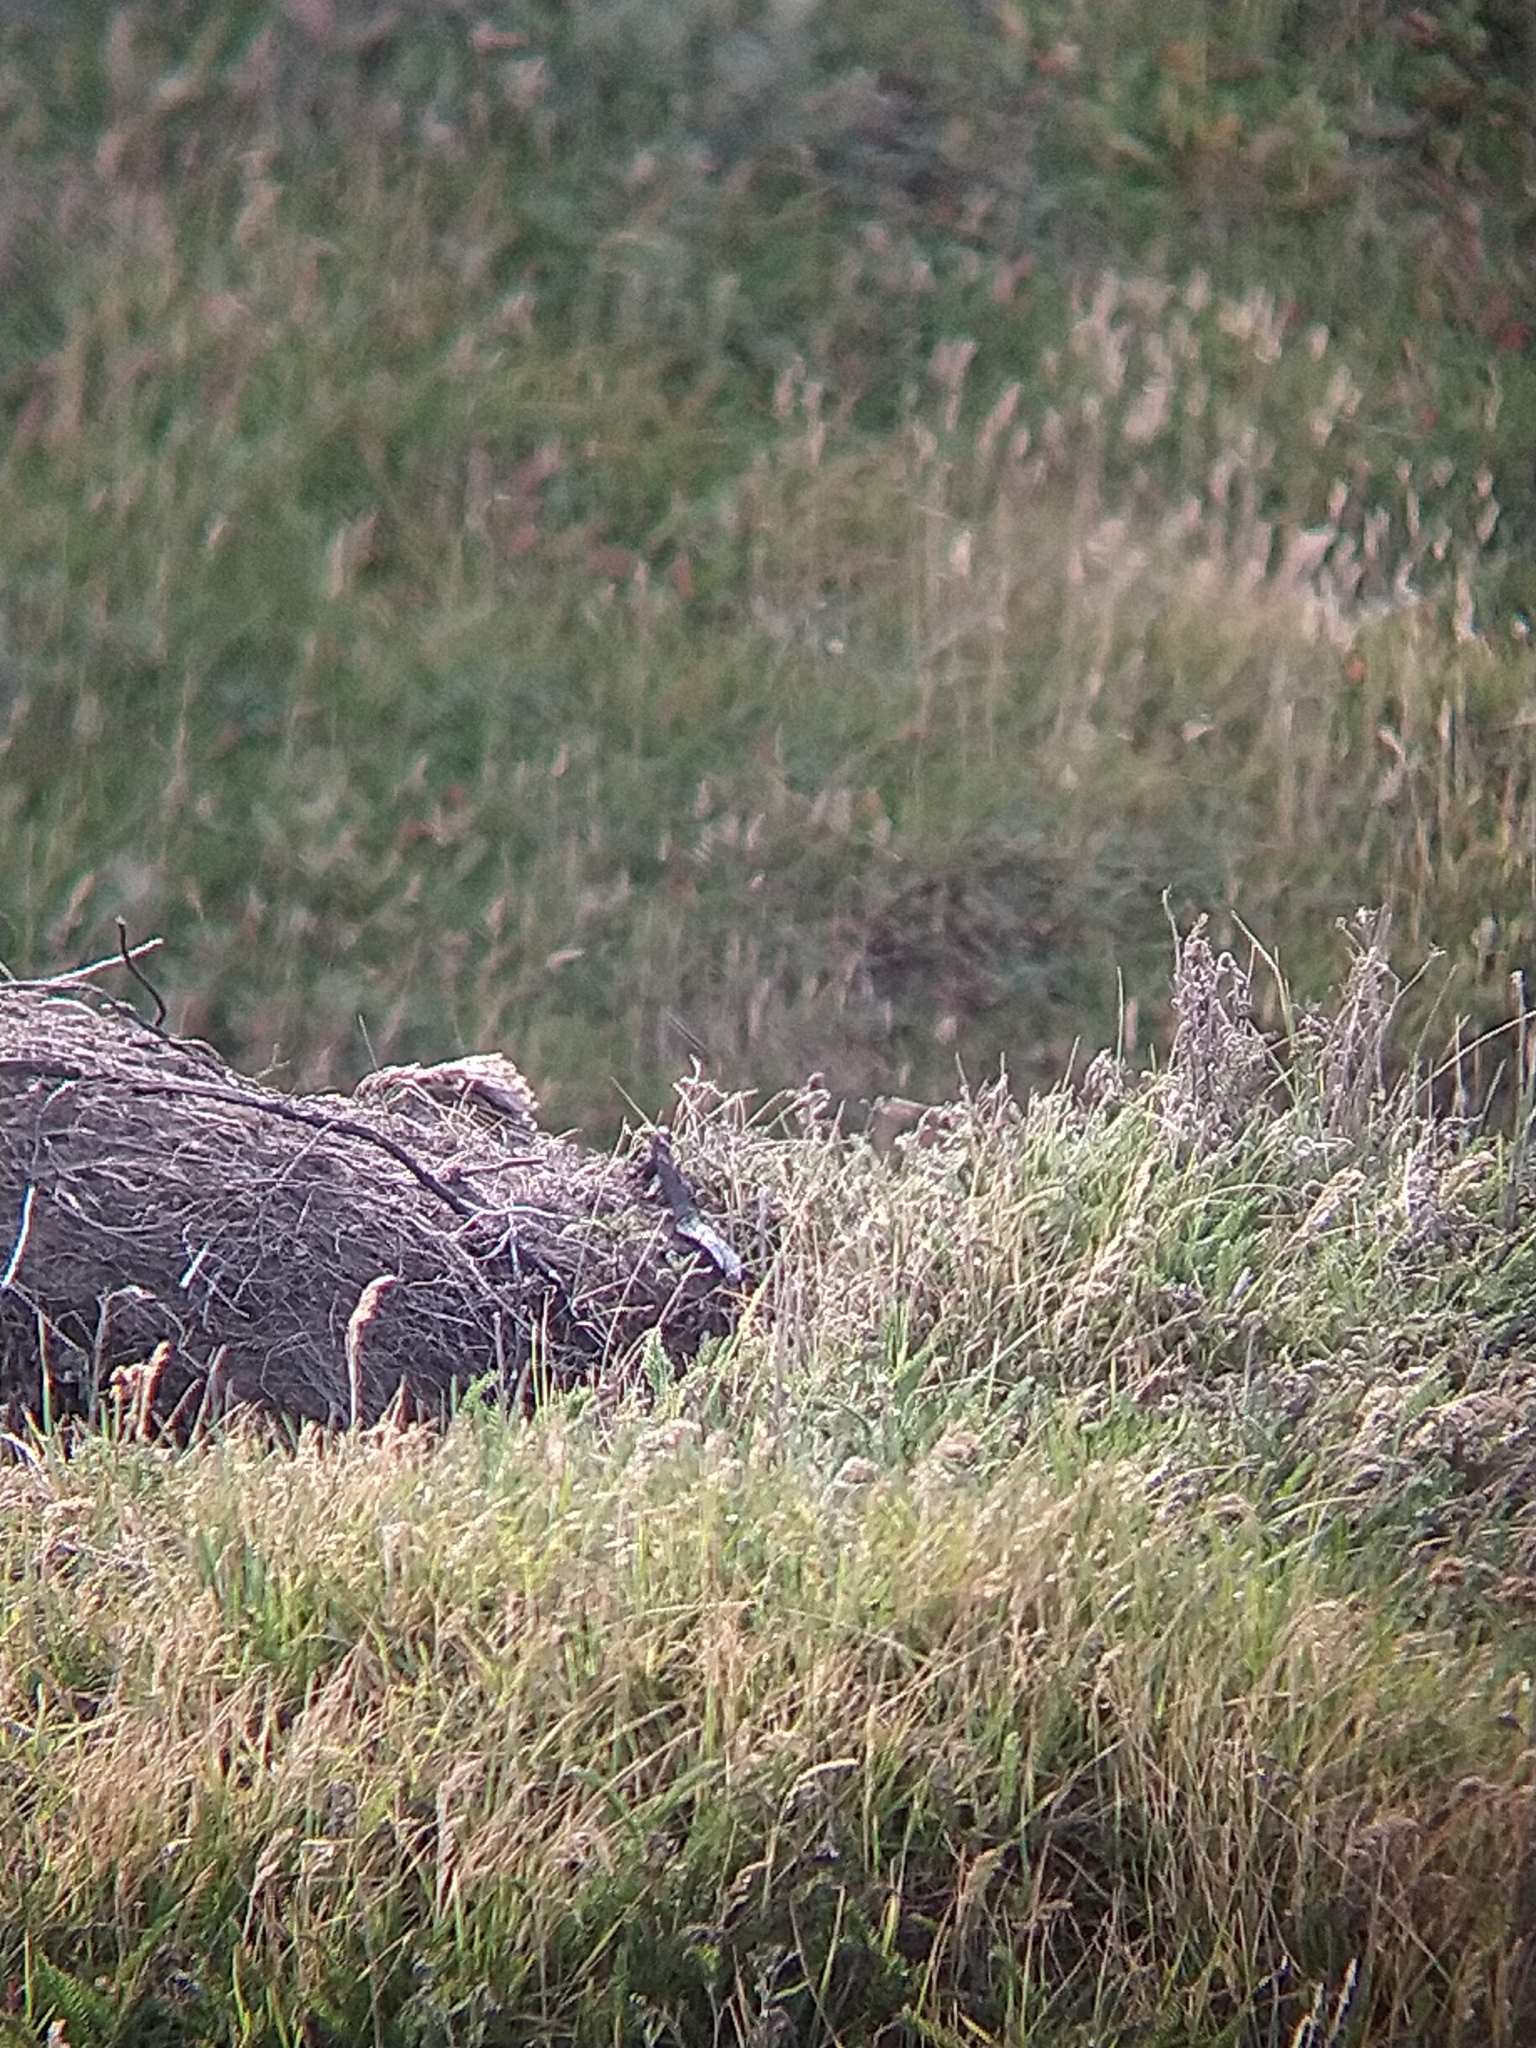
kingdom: Animalia
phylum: Chordata
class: Aves
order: Passeriformes
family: Icteridae
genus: Sturnella
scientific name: Sturnella loyca
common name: Long-tailed meadowlark
